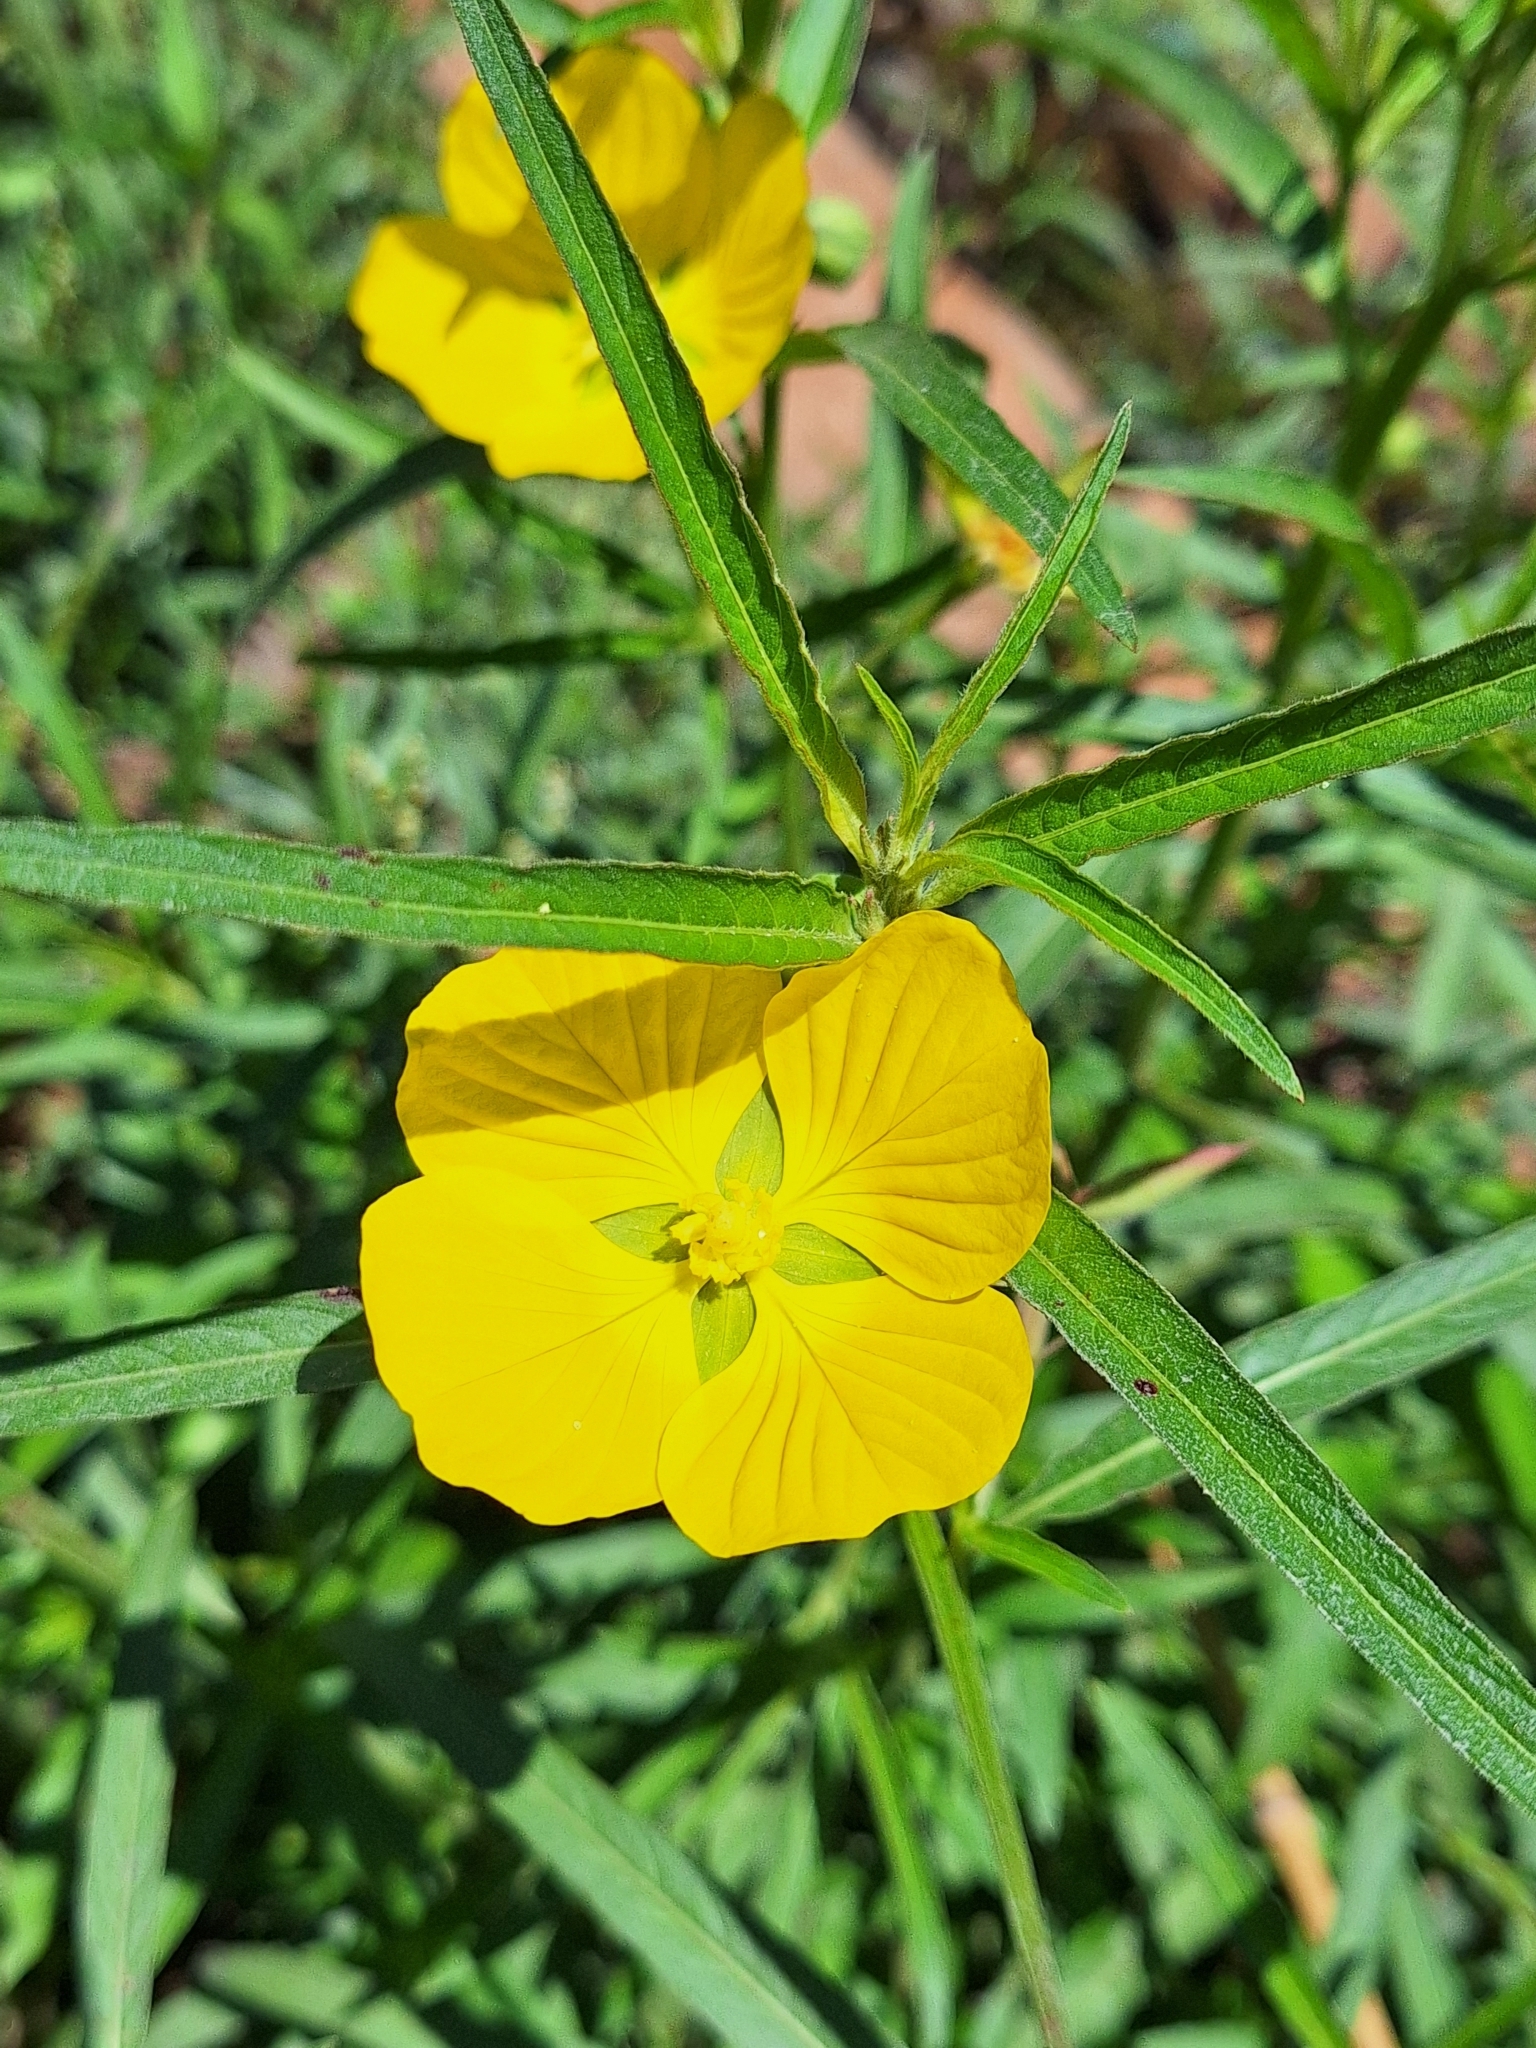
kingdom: Plantae
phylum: Tracheophyta
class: Magnoliopsida
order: Myrtales
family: Onagraceae
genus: Ludwigia
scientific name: Ludwigia bonariensis
